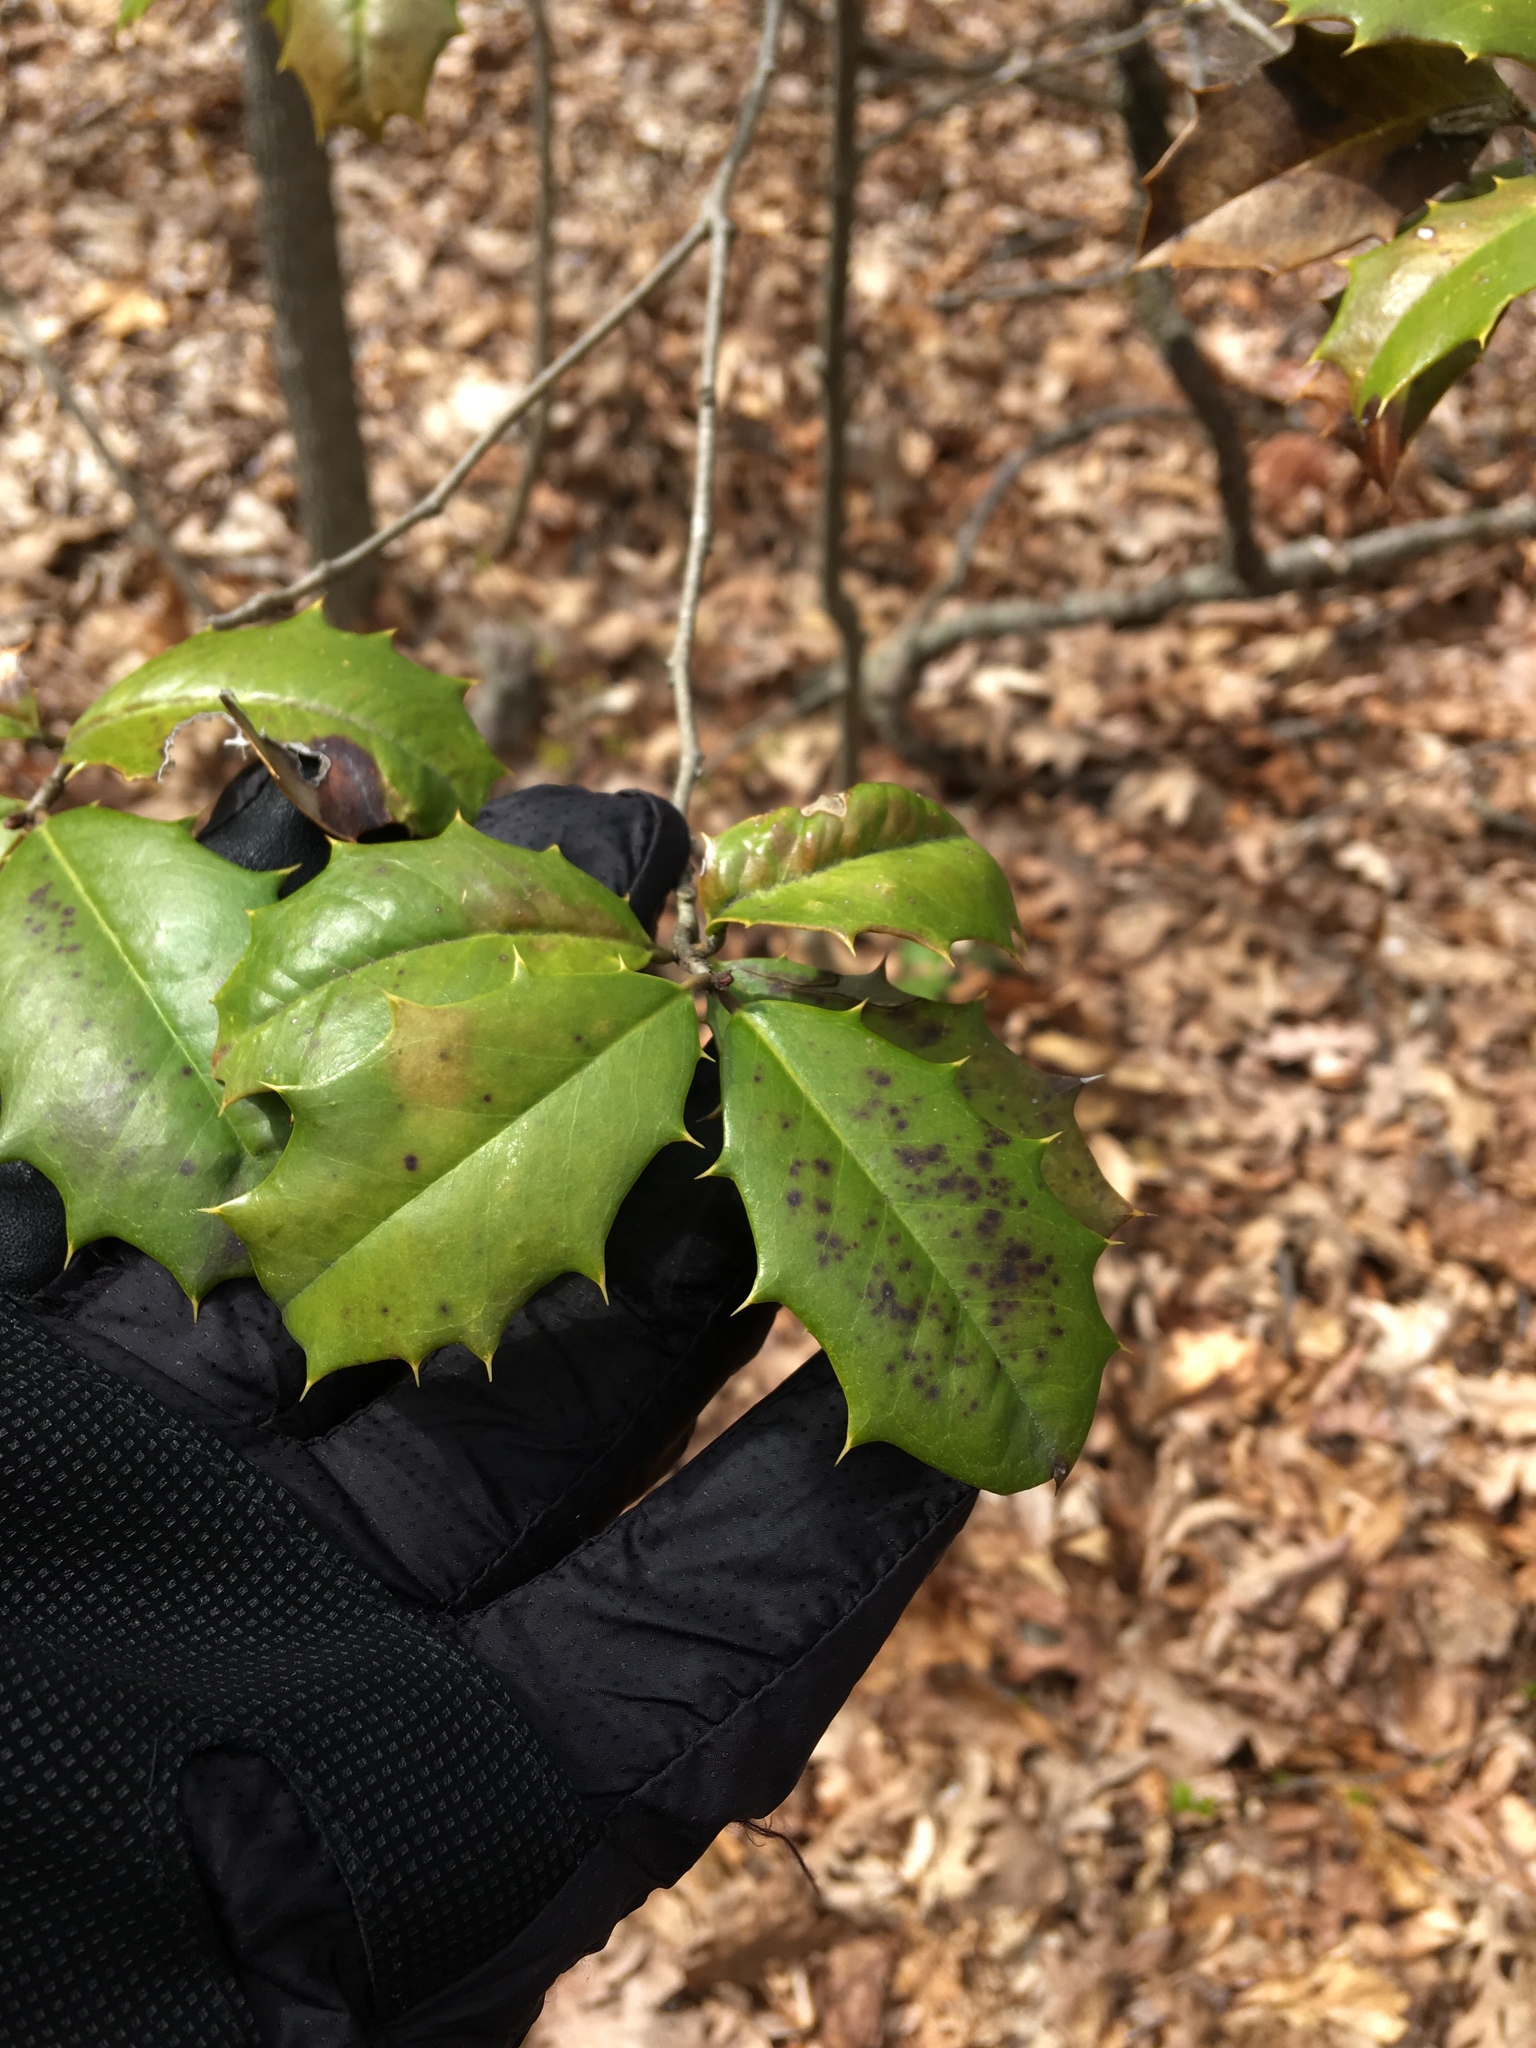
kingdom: Plantae
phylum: Tracheophyta
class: Magnoliopsida
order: Aquifoliales
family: Aquifoliaceae
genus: Ilex
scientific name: Ilex opaca
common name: American holly
